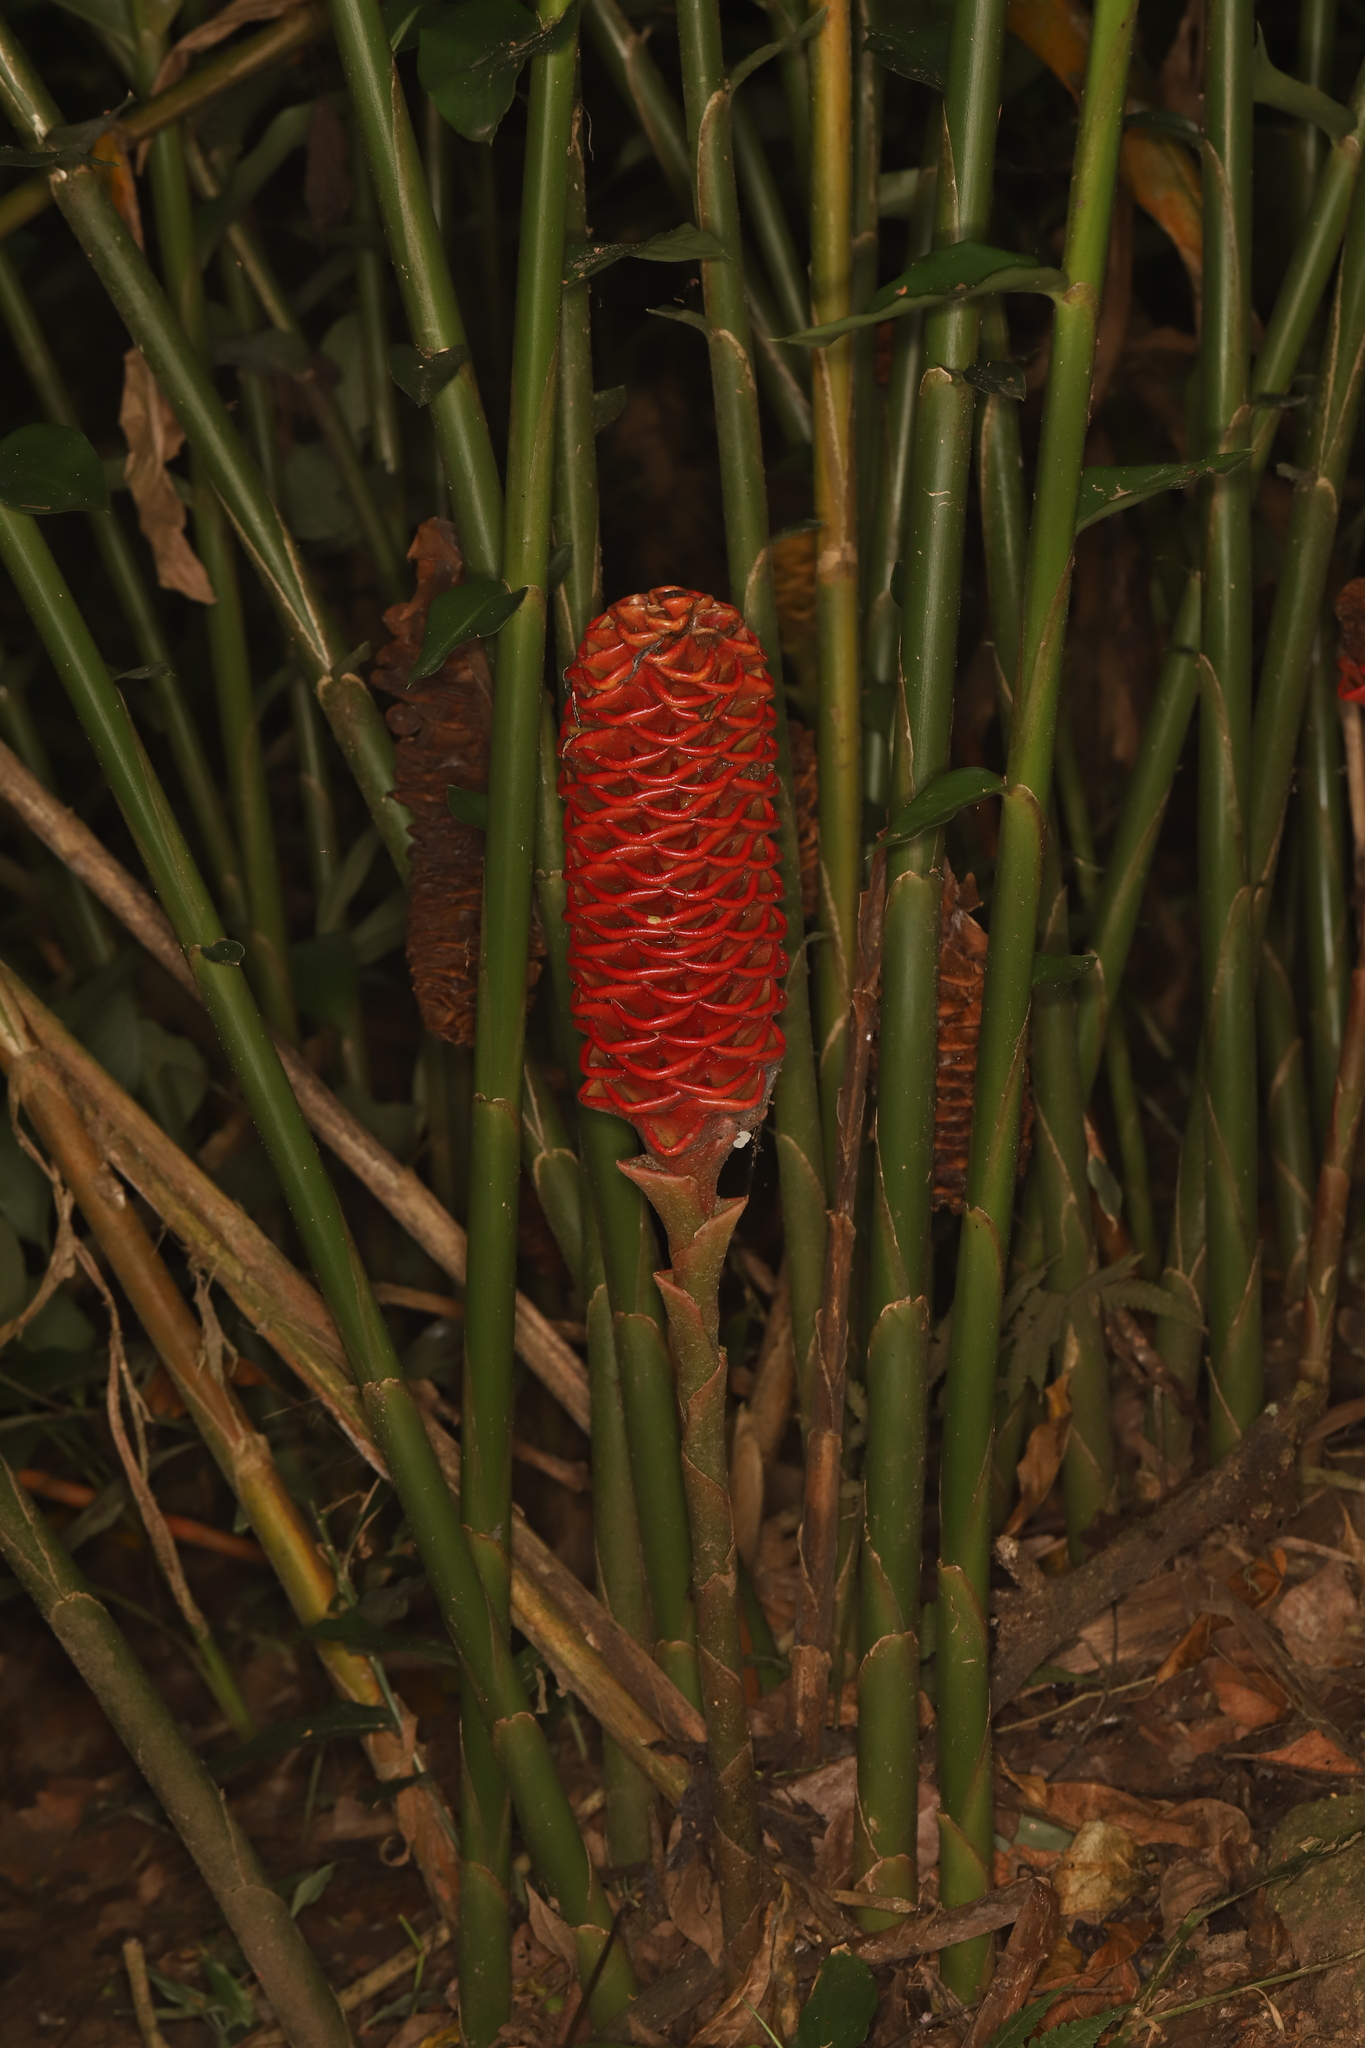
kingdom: Plantae
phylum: Tracheophyta
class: Liliopsida
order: Zingiberales
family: Zingiberaceae
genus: Zingiber
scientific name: Zingiber spectabile
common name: Beehive ginger
